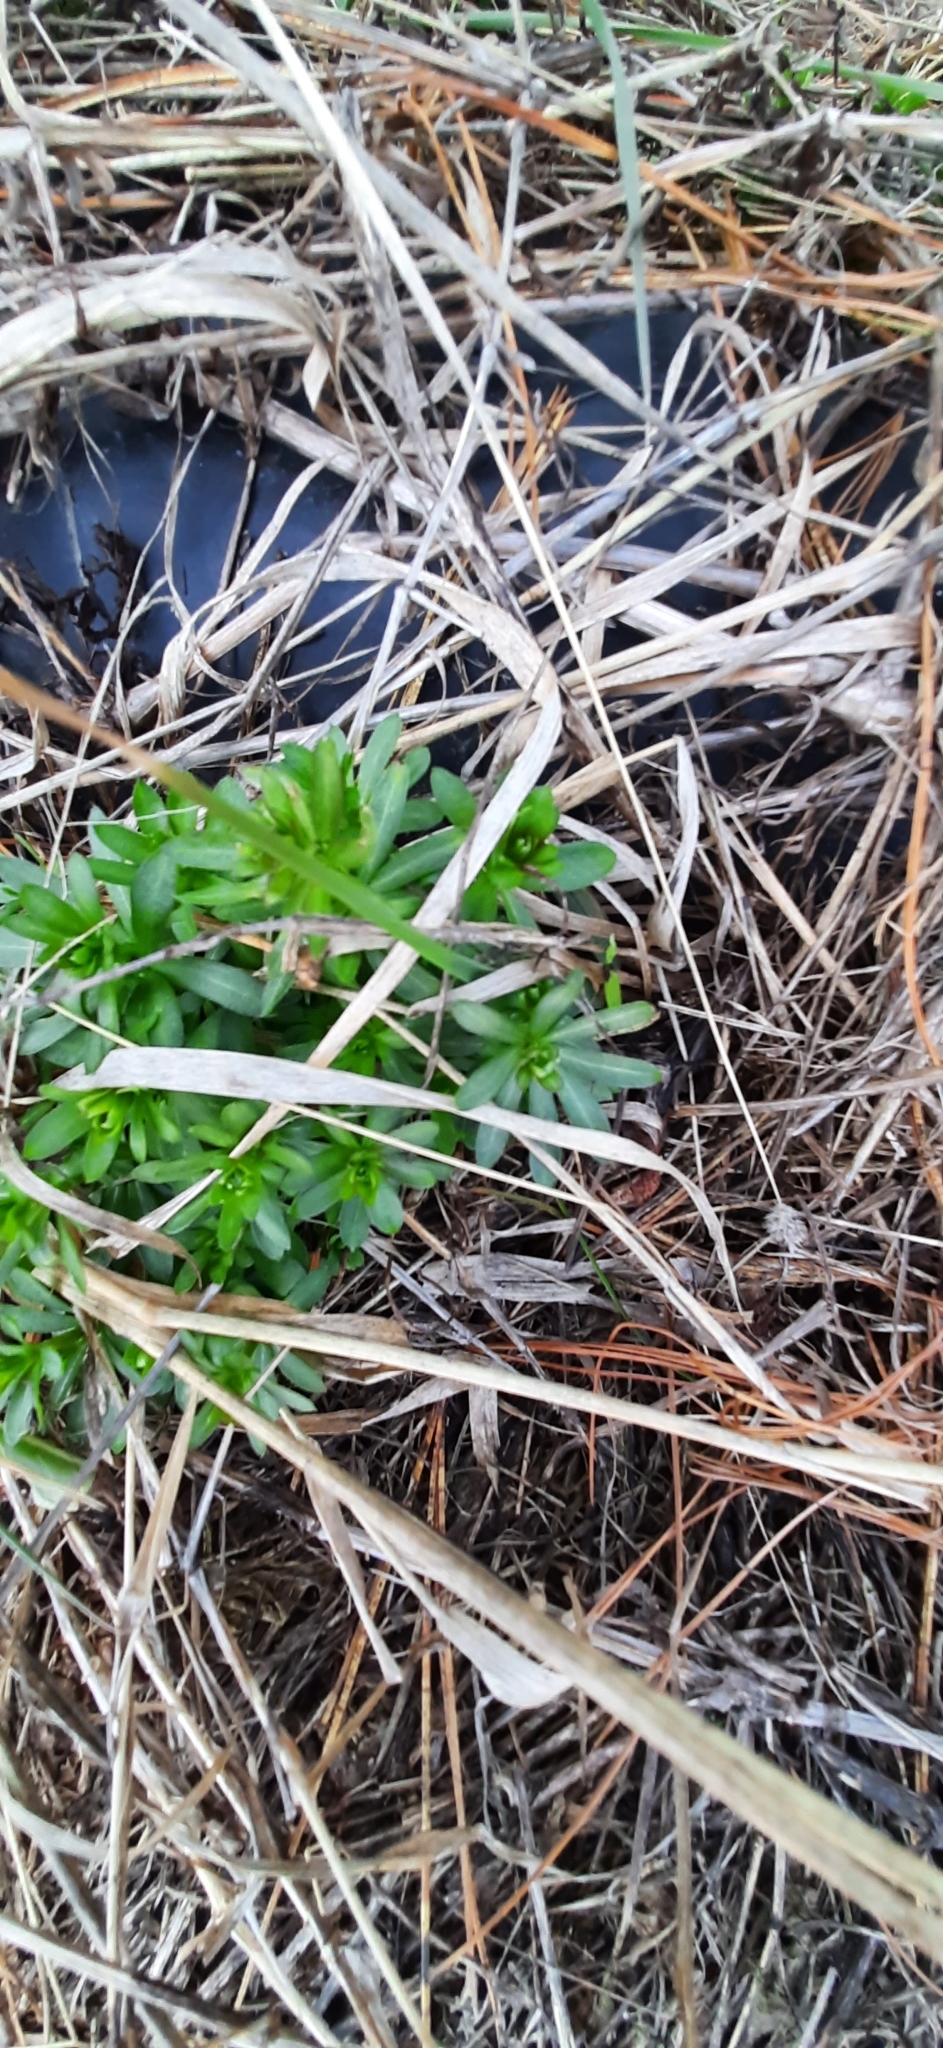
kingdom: Plantae
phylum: Tracheophyta
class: Magnoliopsida
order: Gentianales
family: Rubiaceae
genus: Galium
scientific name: Galium mollugo
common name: Hedge bedstraw
